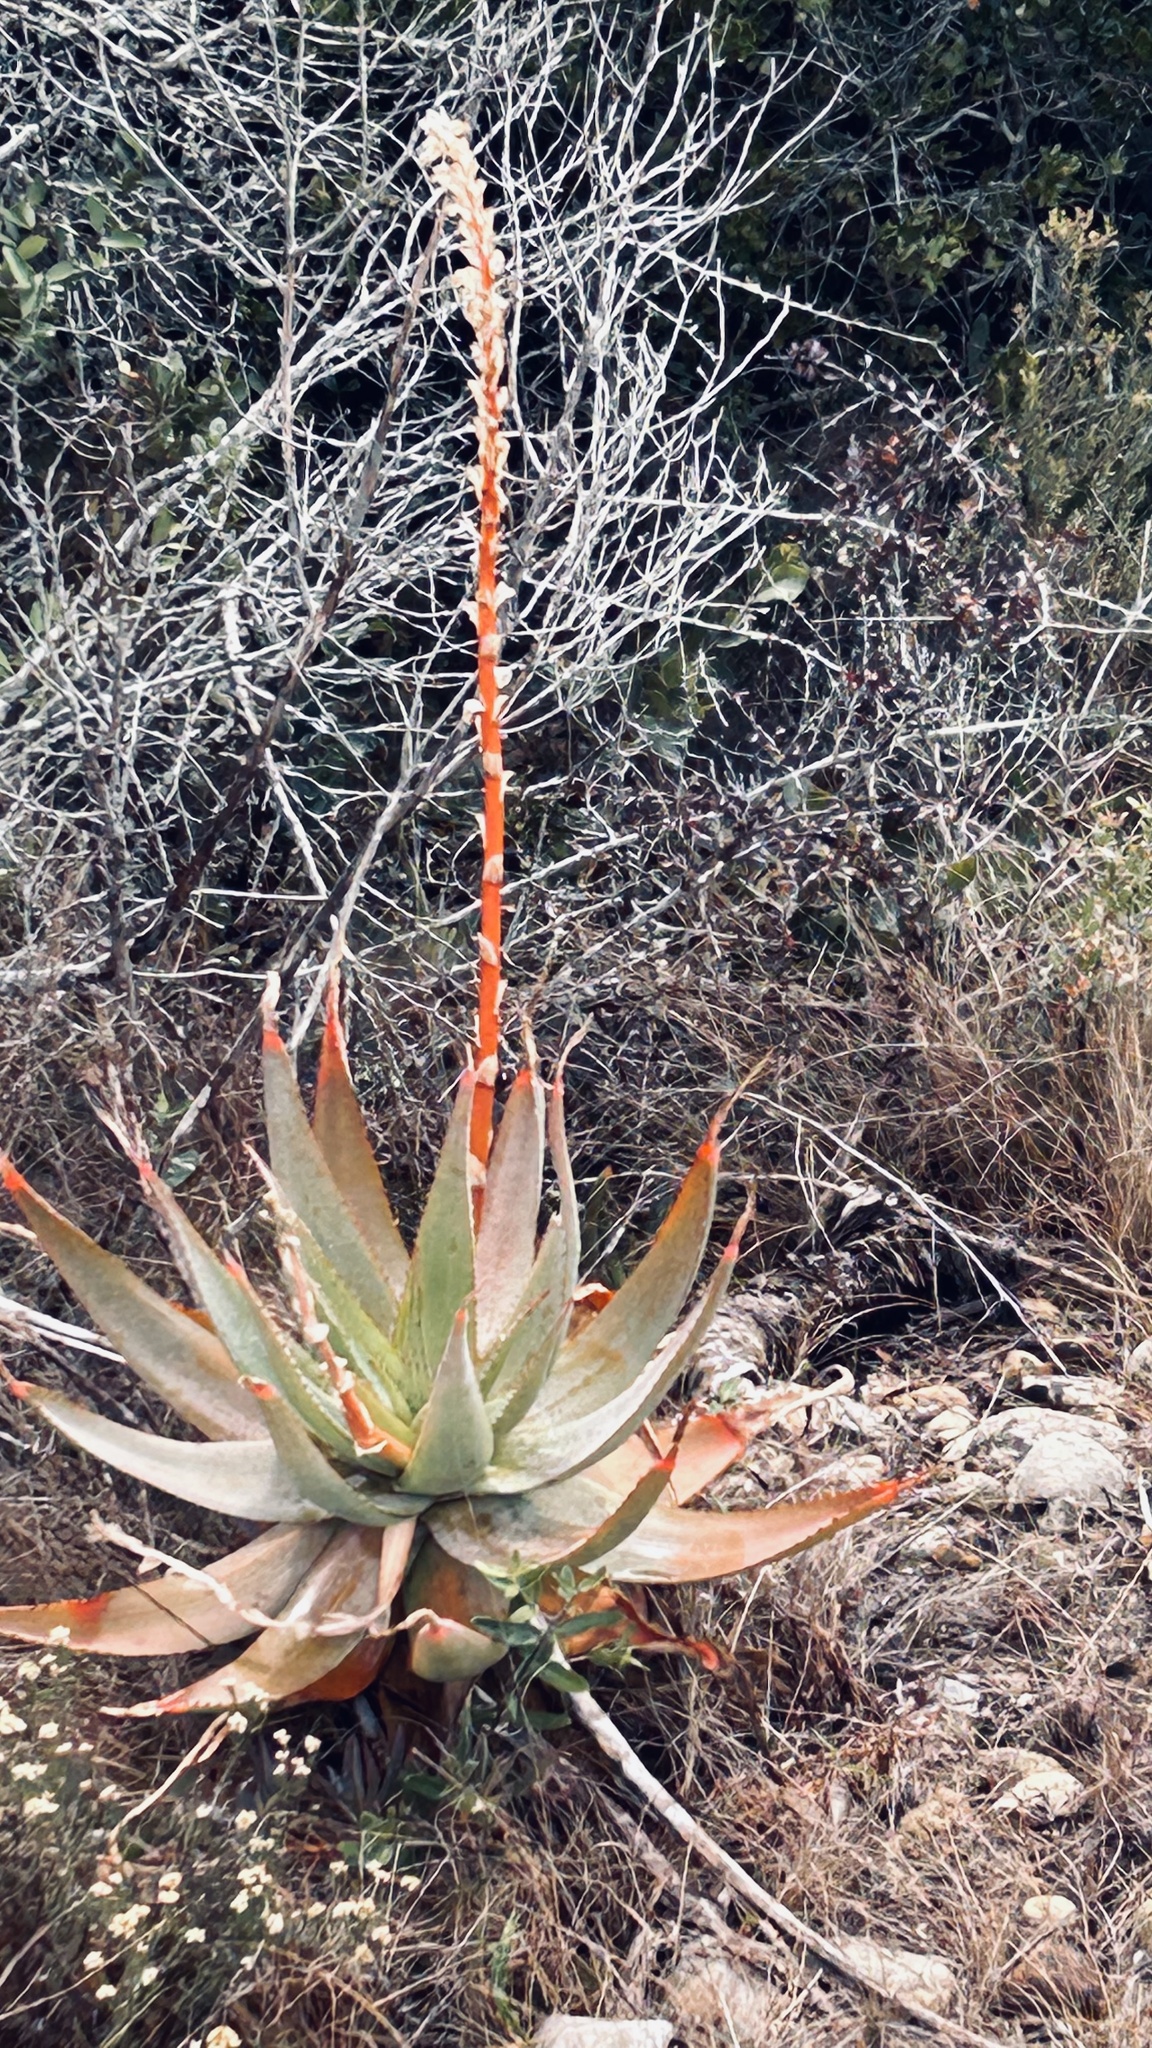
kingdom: Plantae
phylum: Tracheophyta
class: Liliopsida
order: Asparagales
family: Asphodelaceae
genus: Aloe
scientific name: Aloe glauca
